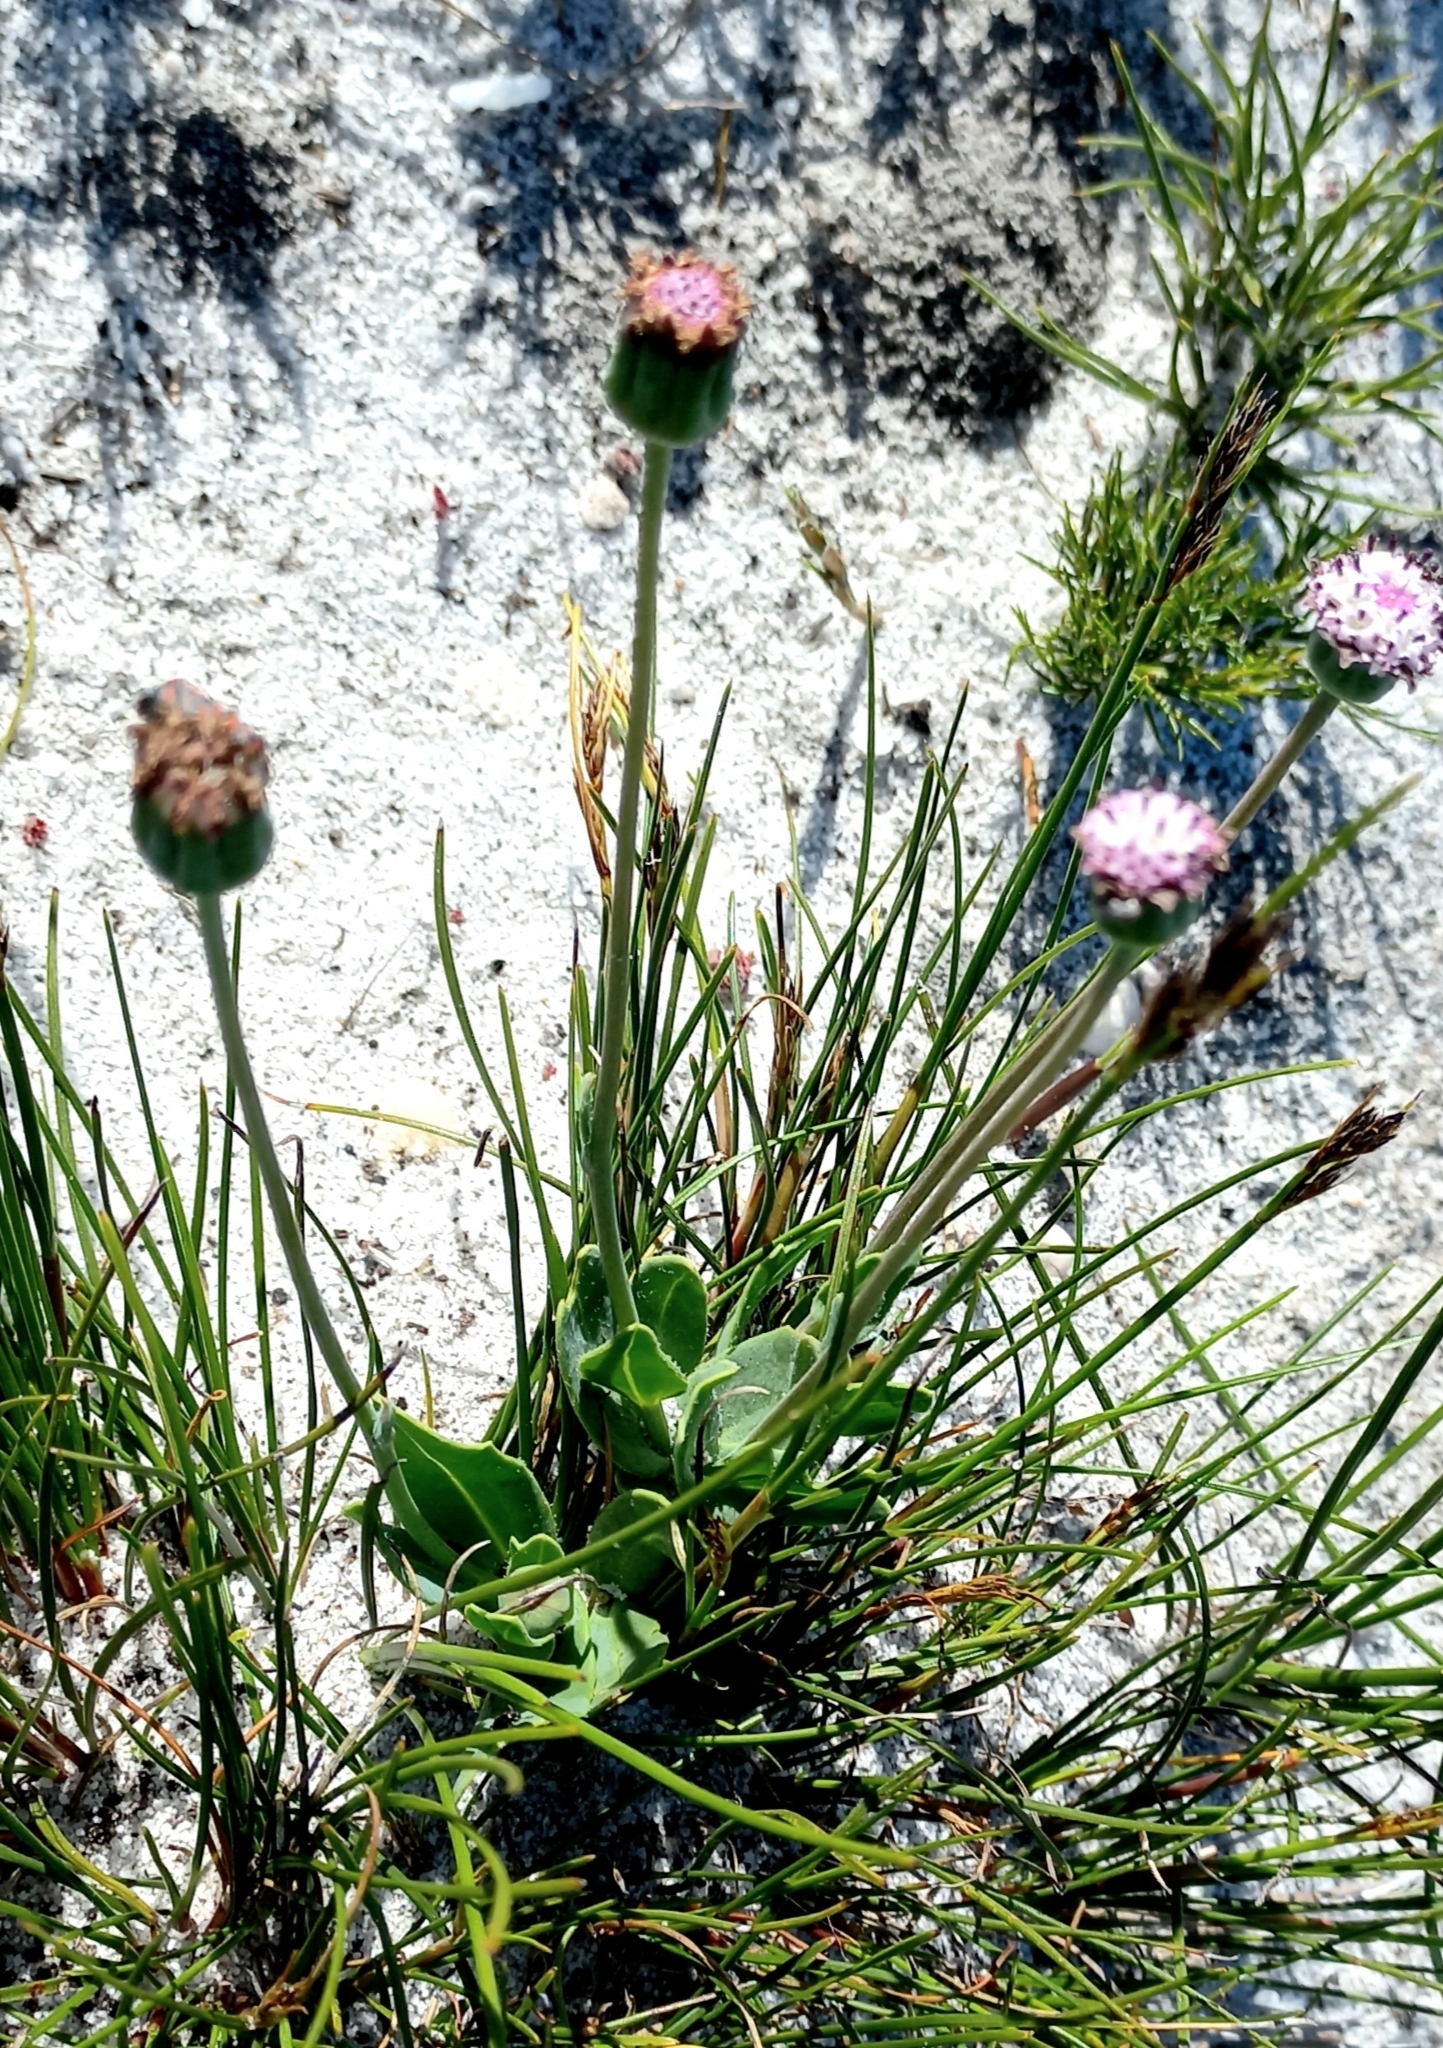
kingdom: Plantae
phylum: Tracheophyta
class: Magnoliopsida
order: Asterales
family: Asteraceae
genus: Othonna
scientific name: Othonna digitata
